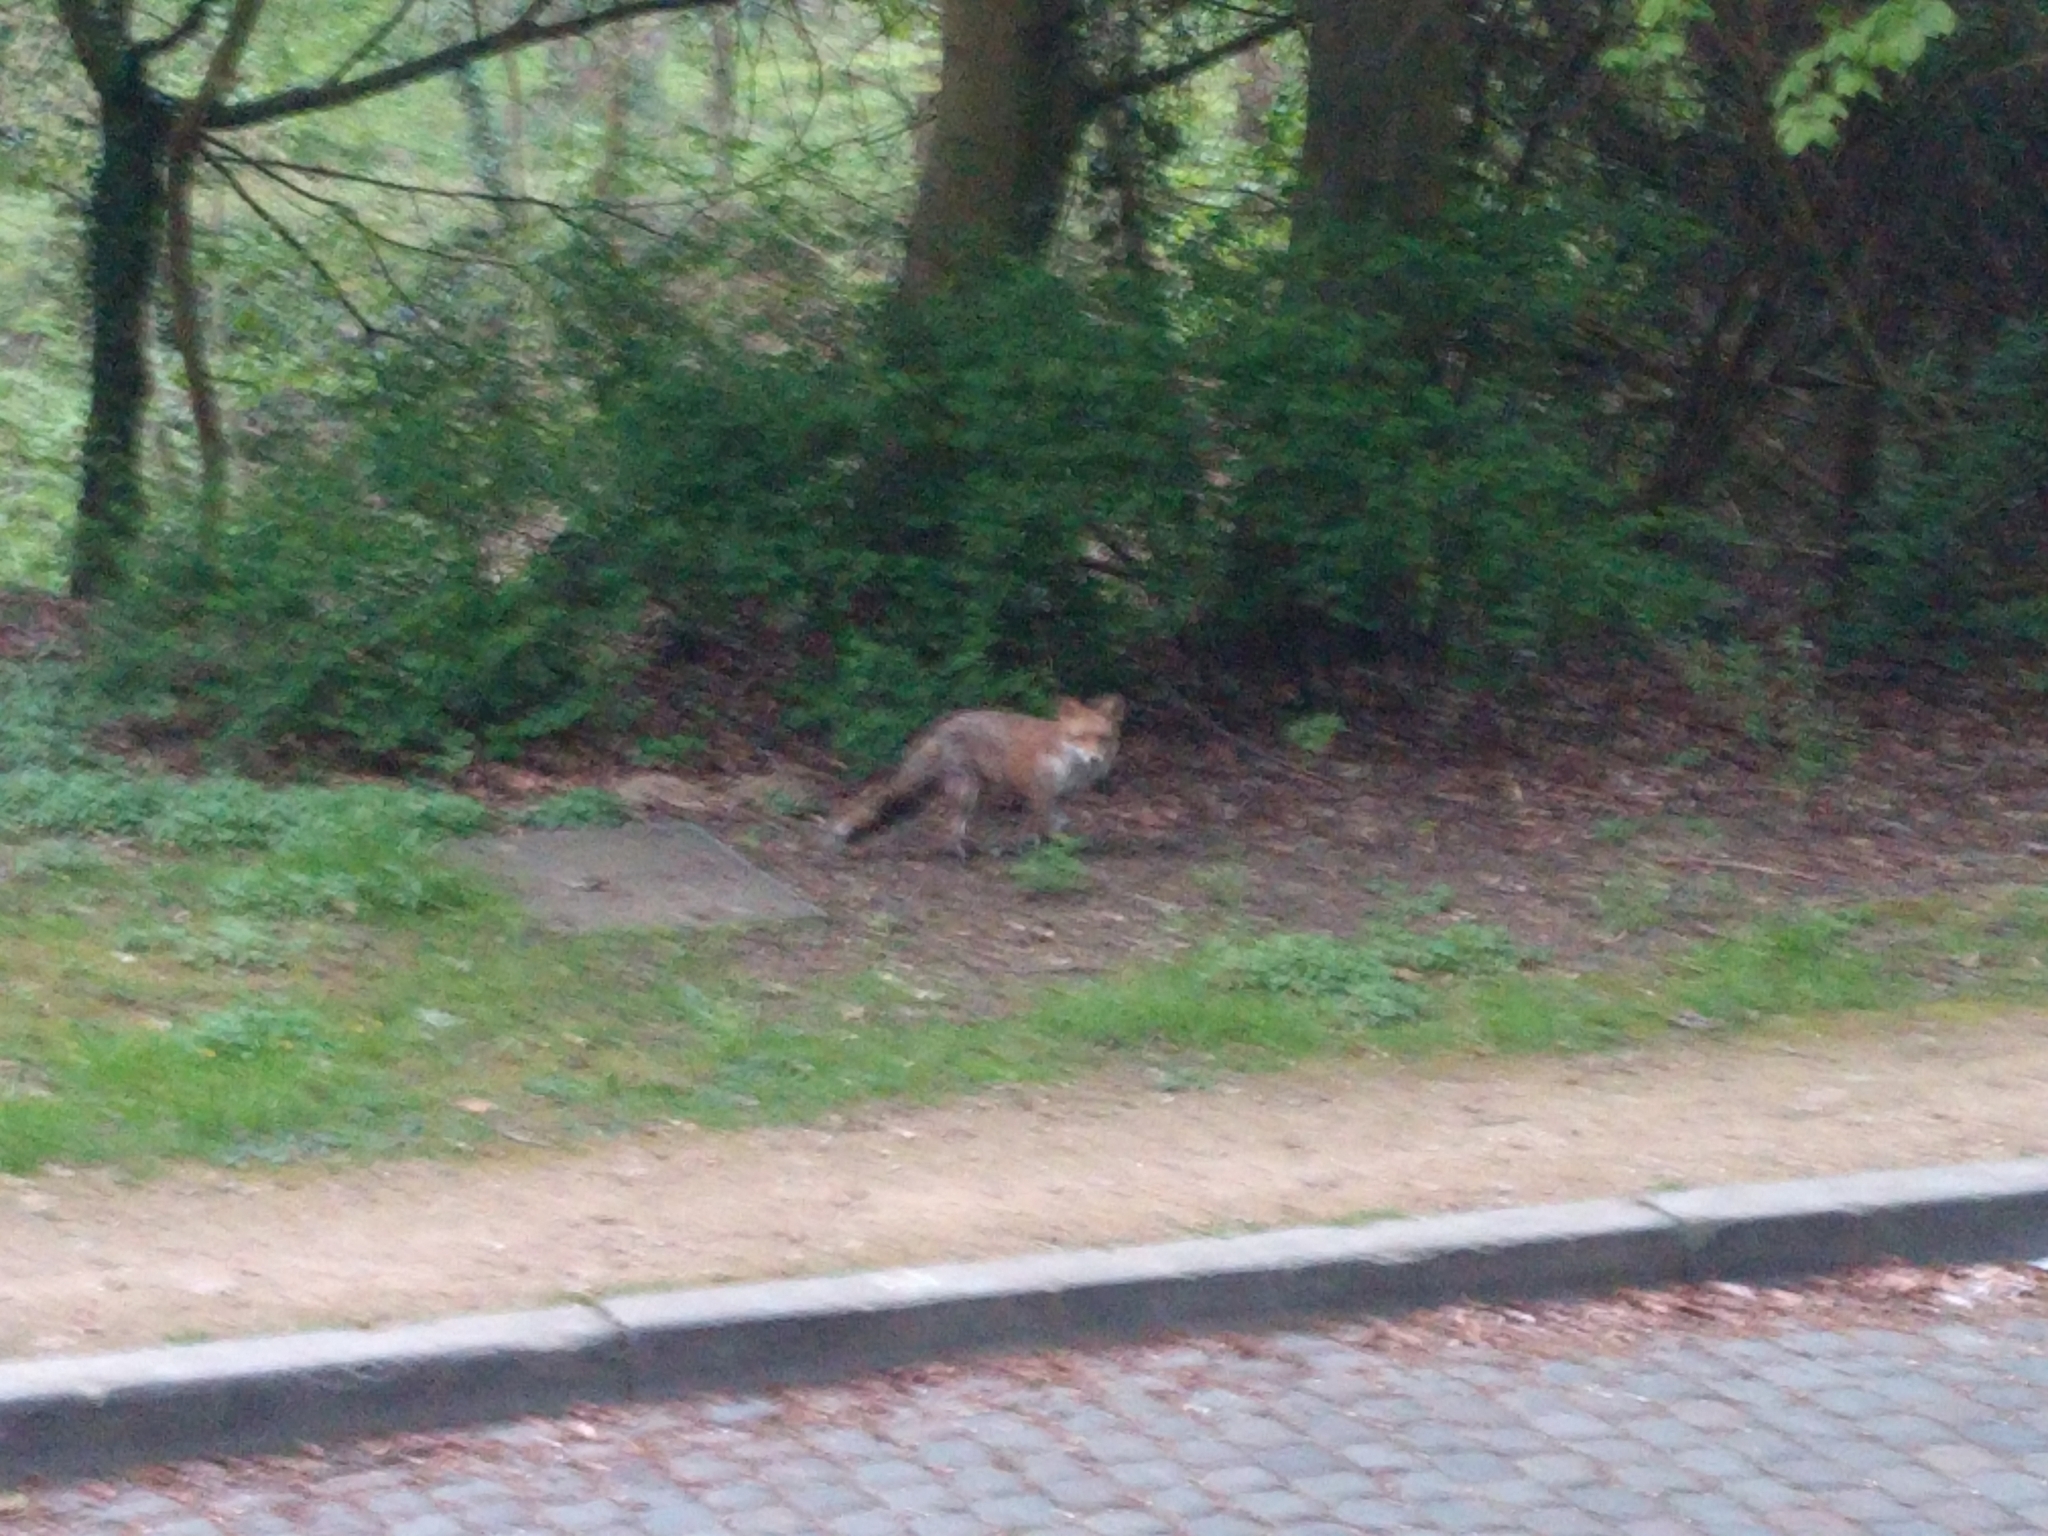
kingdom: Animalia
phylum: Chordata
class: Mammalia
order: Carnivora
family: Canidae
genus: Vulpes
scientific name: Vulpes vulpes
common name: Red fox
